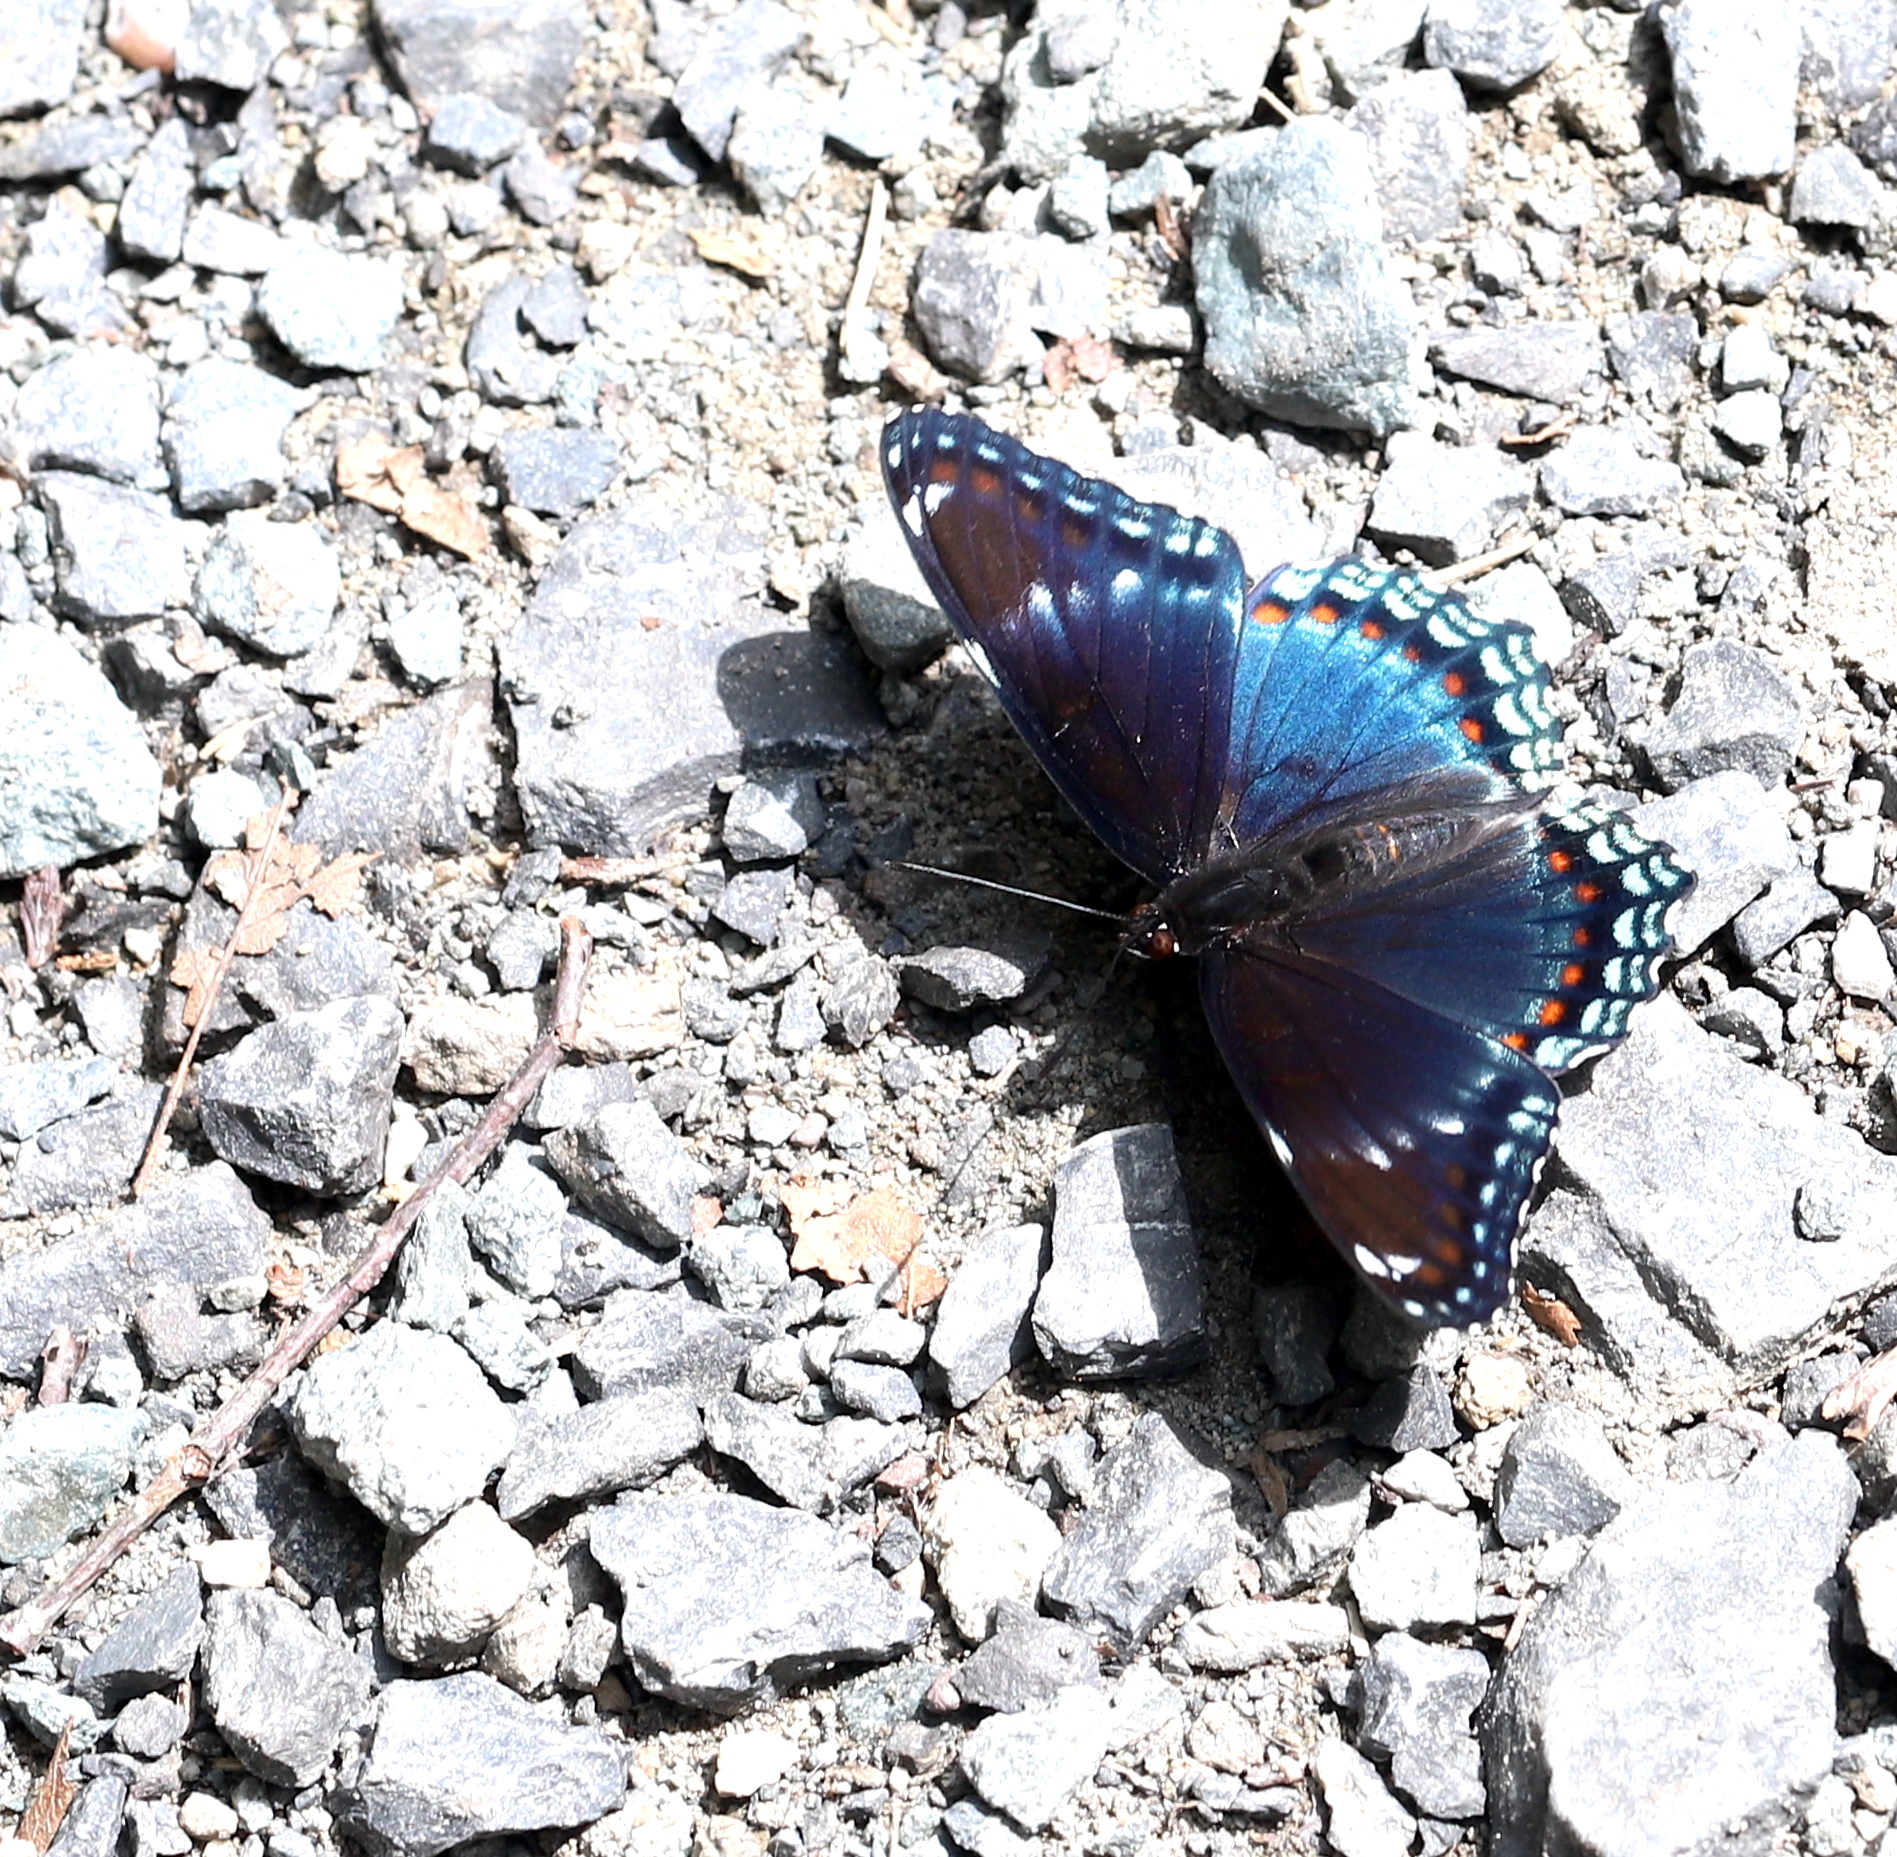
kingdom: Animalia
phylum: Arthropoda
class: Insecta
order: Lepidoptera
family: Nymphalidae
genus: Limenitis
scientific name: Limenitis arthemis
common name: Red-spotted admiral
